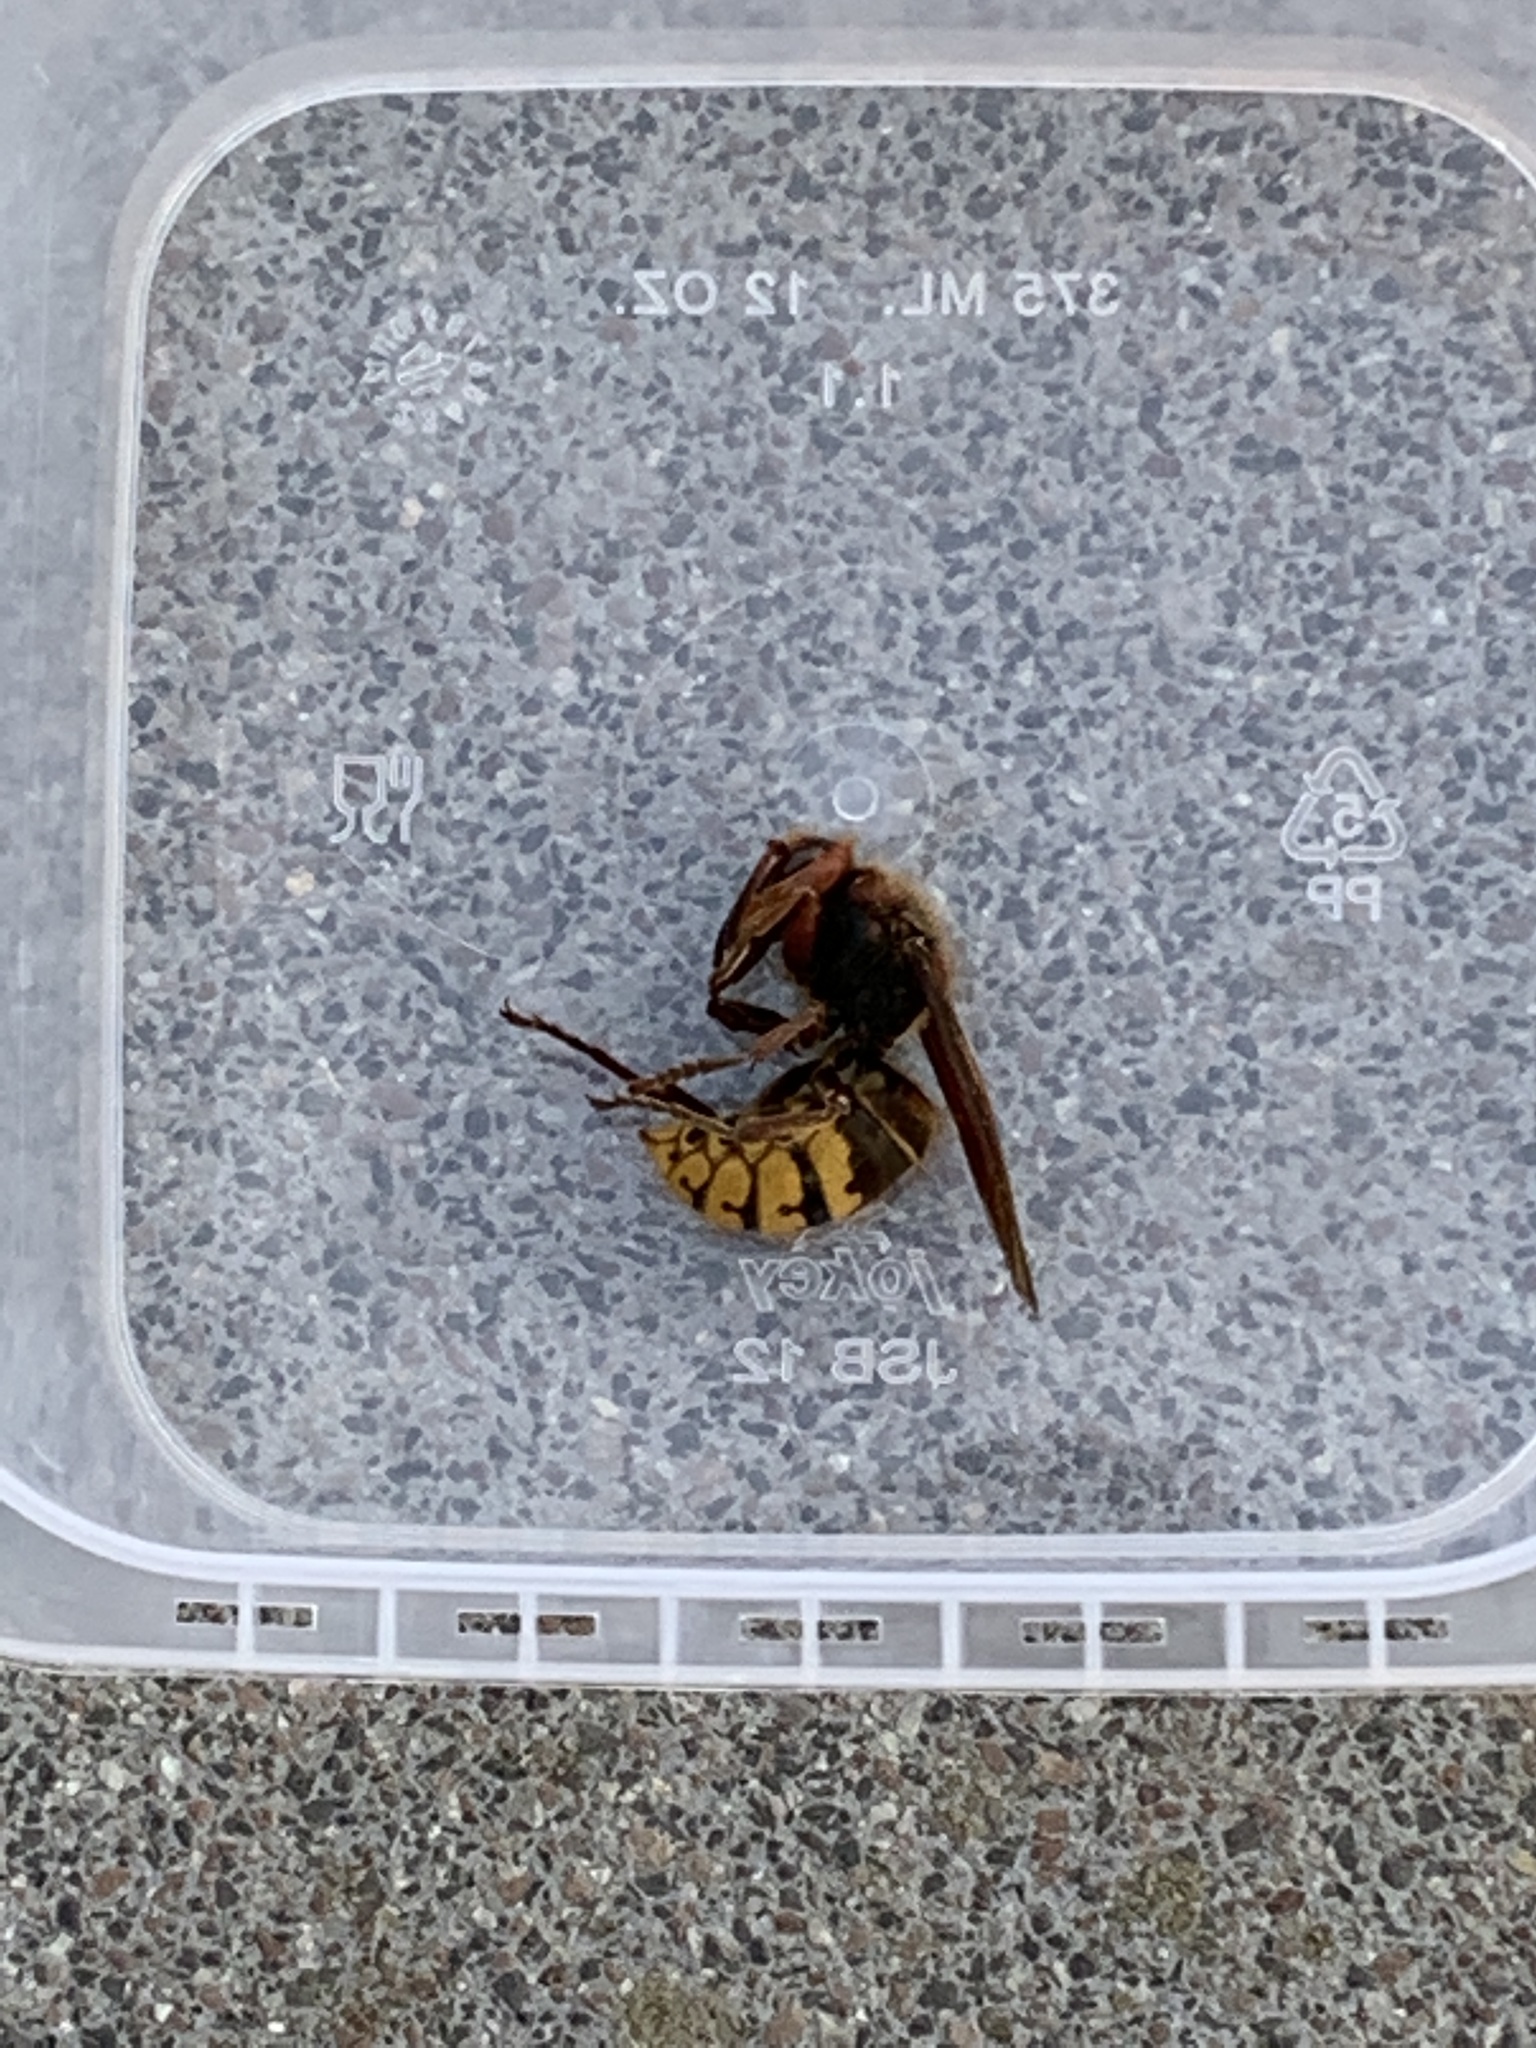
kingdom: Animalia
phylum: Arthropoda
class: Insecta
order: Hymenoptera
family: Vespidae
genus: Vespa
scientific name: Vespa crabro
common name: Hornet
